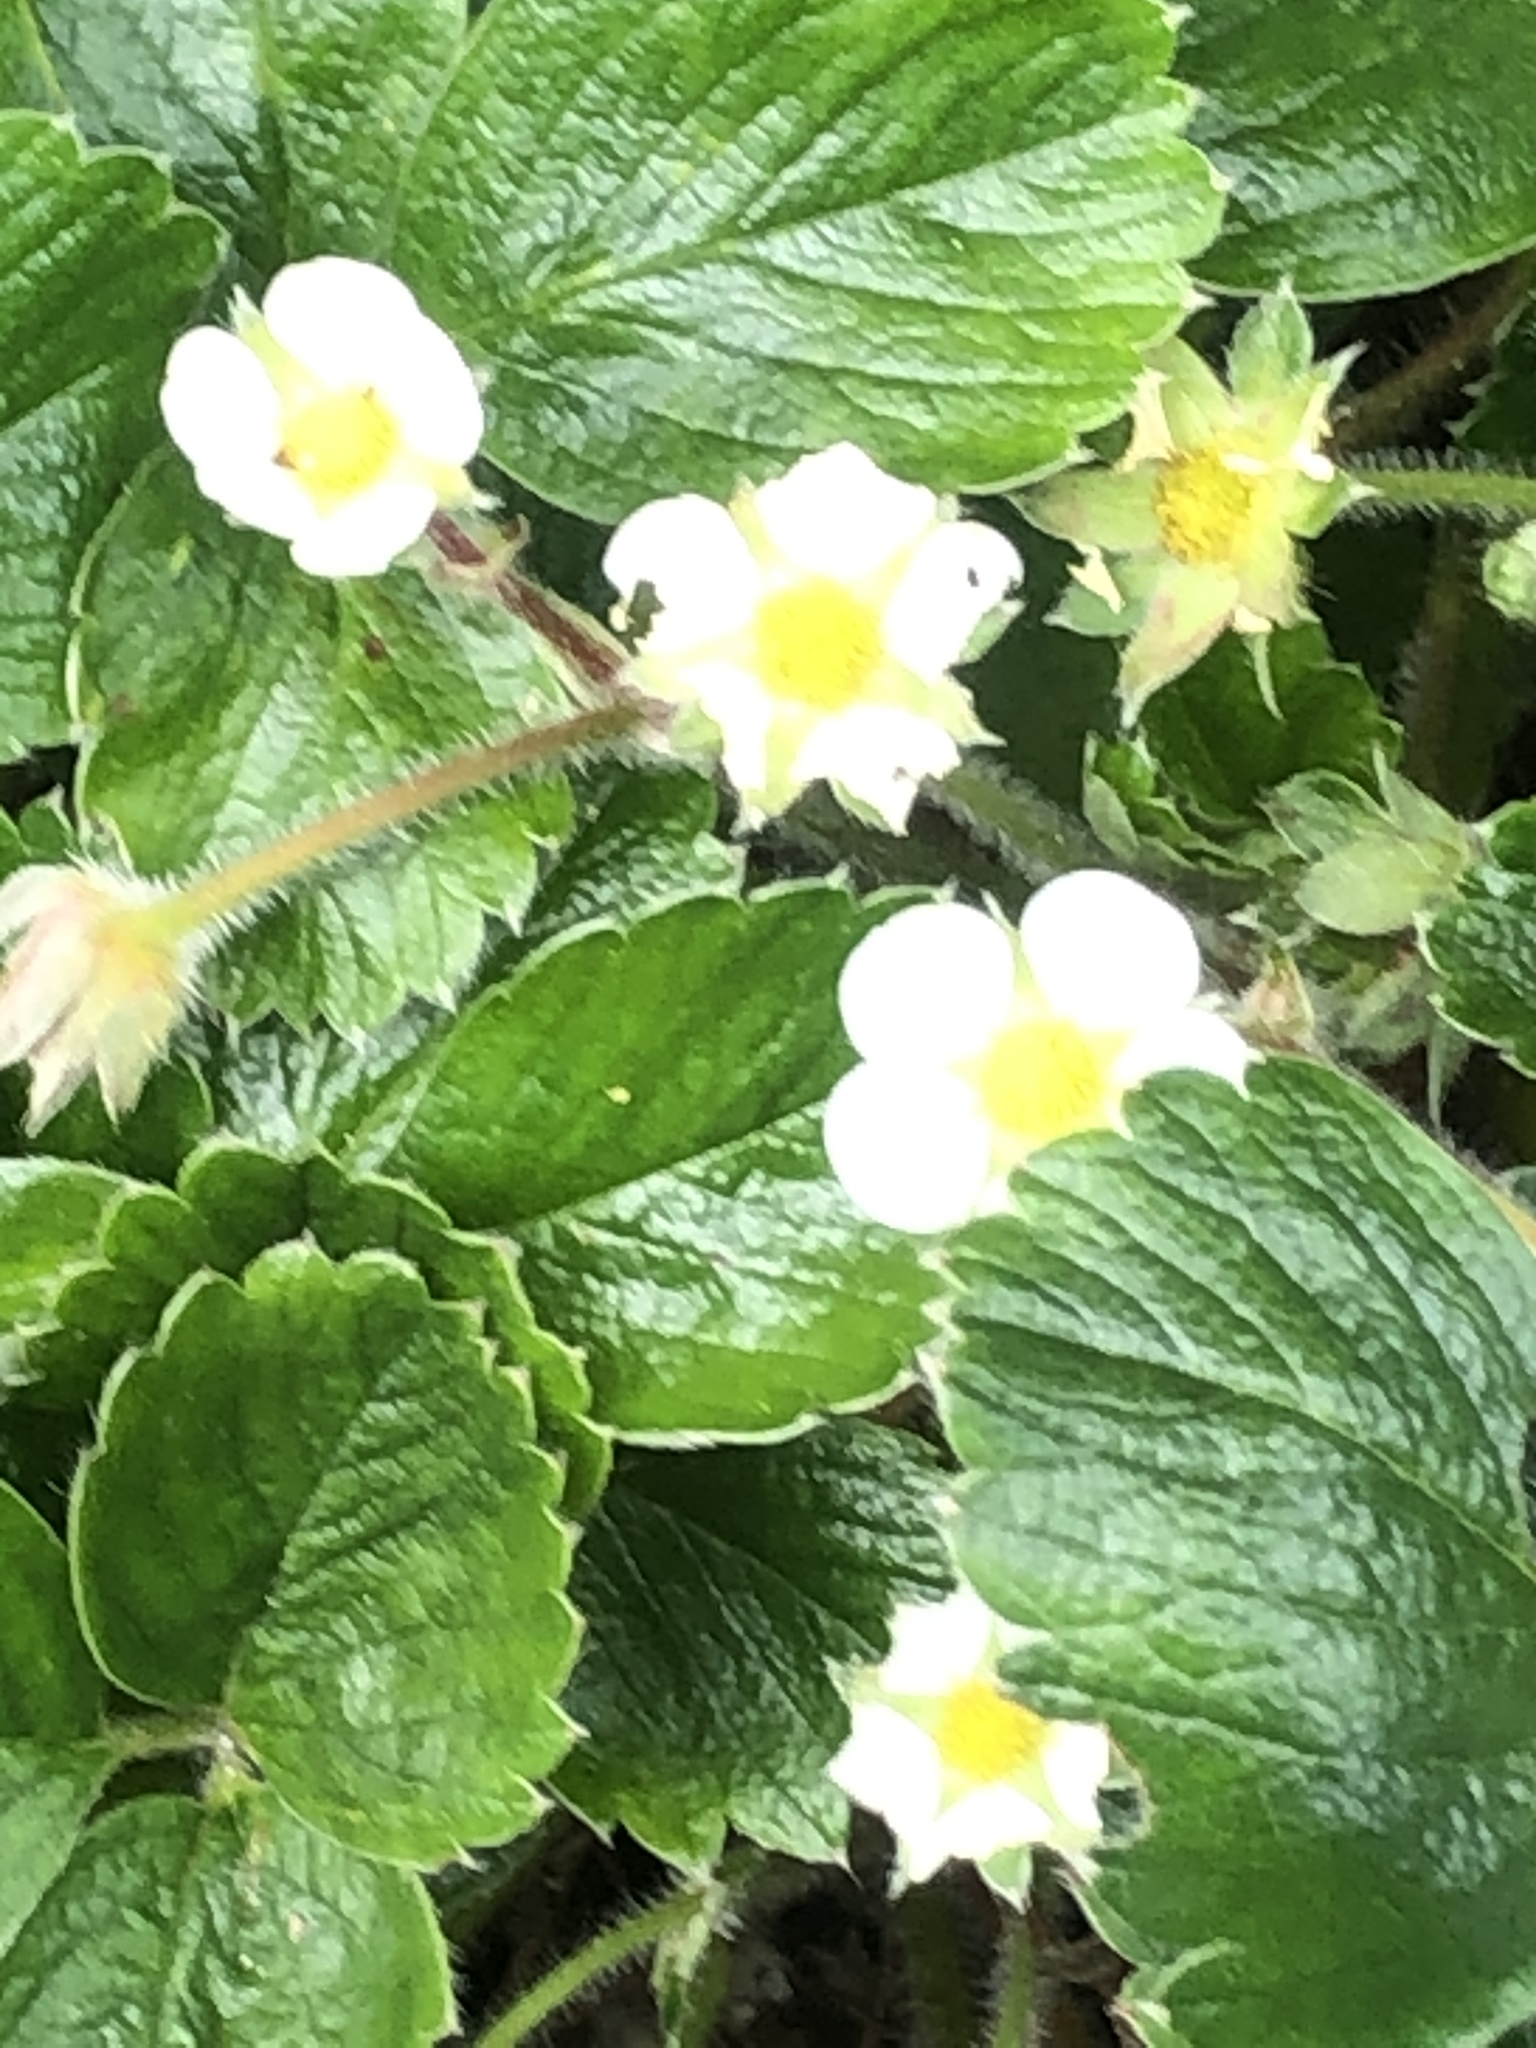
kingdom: Plantae
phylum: Tracheophyta
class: Magnoliopsida
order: Rosales
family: Rosaceae
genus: Fragaria
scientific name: Fragaria ananassa
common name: Garden strawberry
